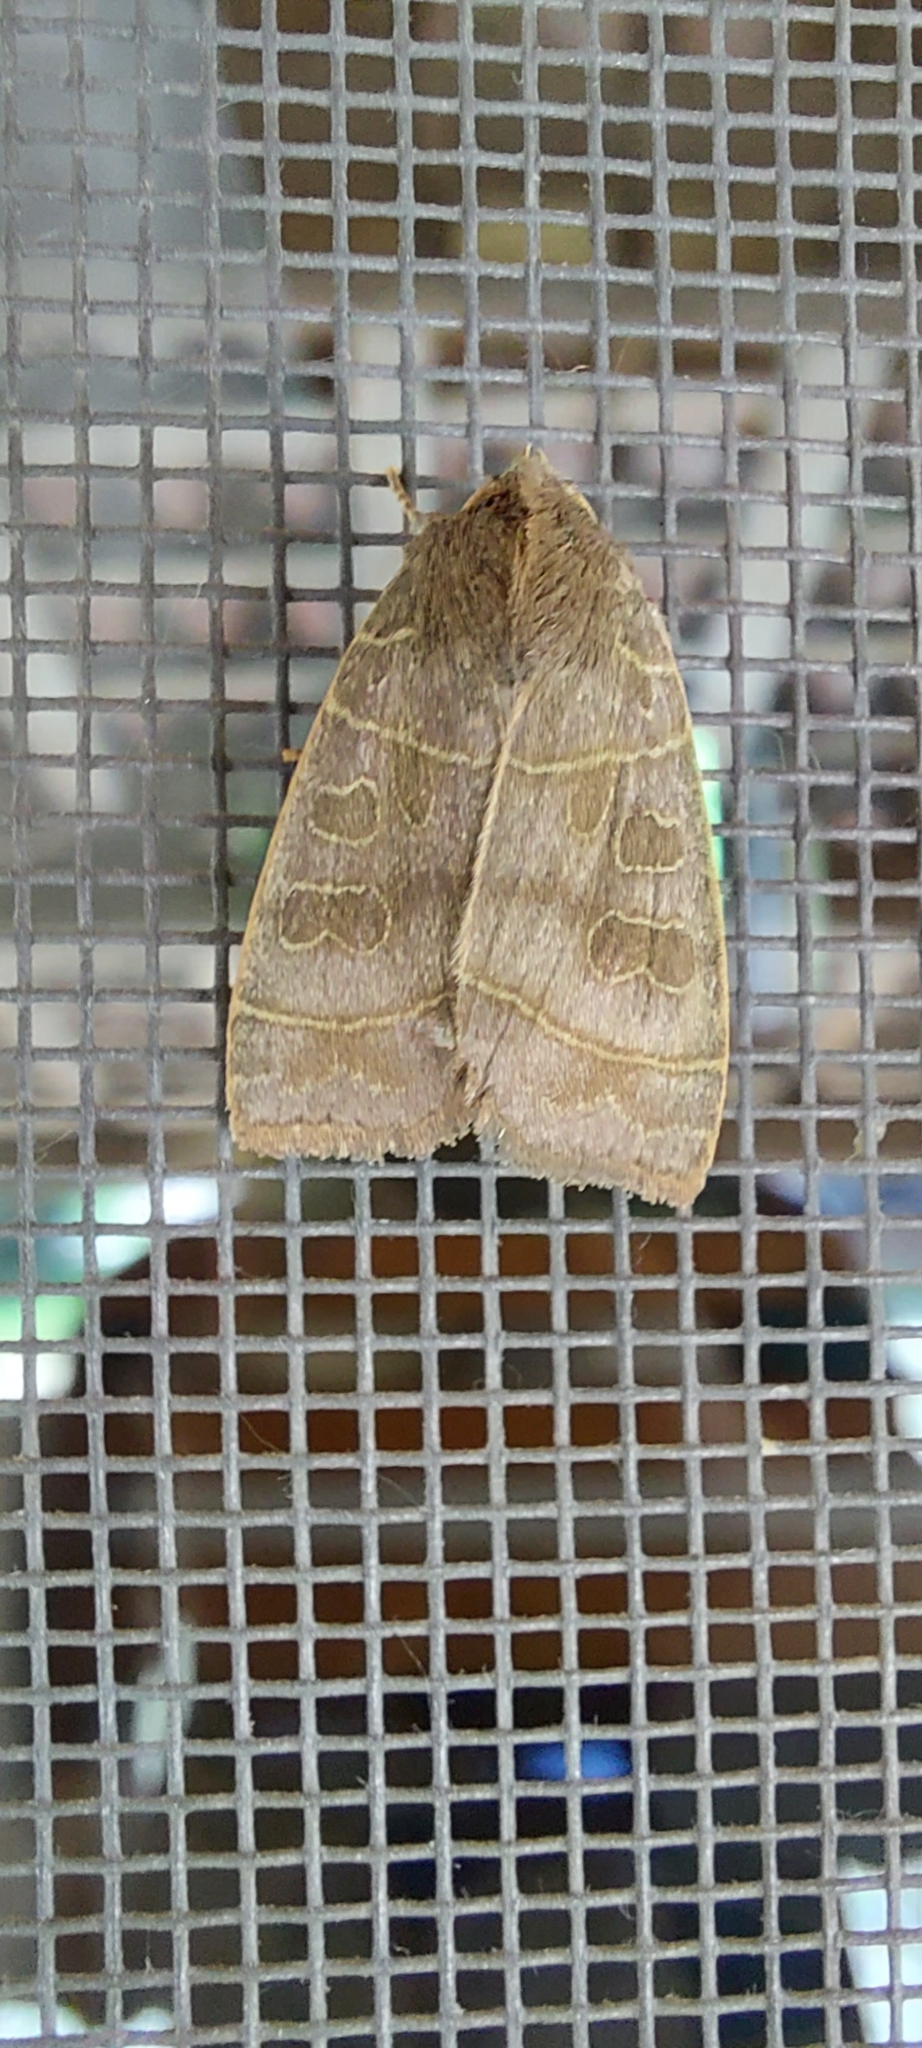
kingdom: Animalia
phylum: Arthropoda
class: Insecta
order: Lepidoptera
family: Noctuidae
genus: Ipimorpha
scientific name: Ipimorpha subtusa
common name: Olive
